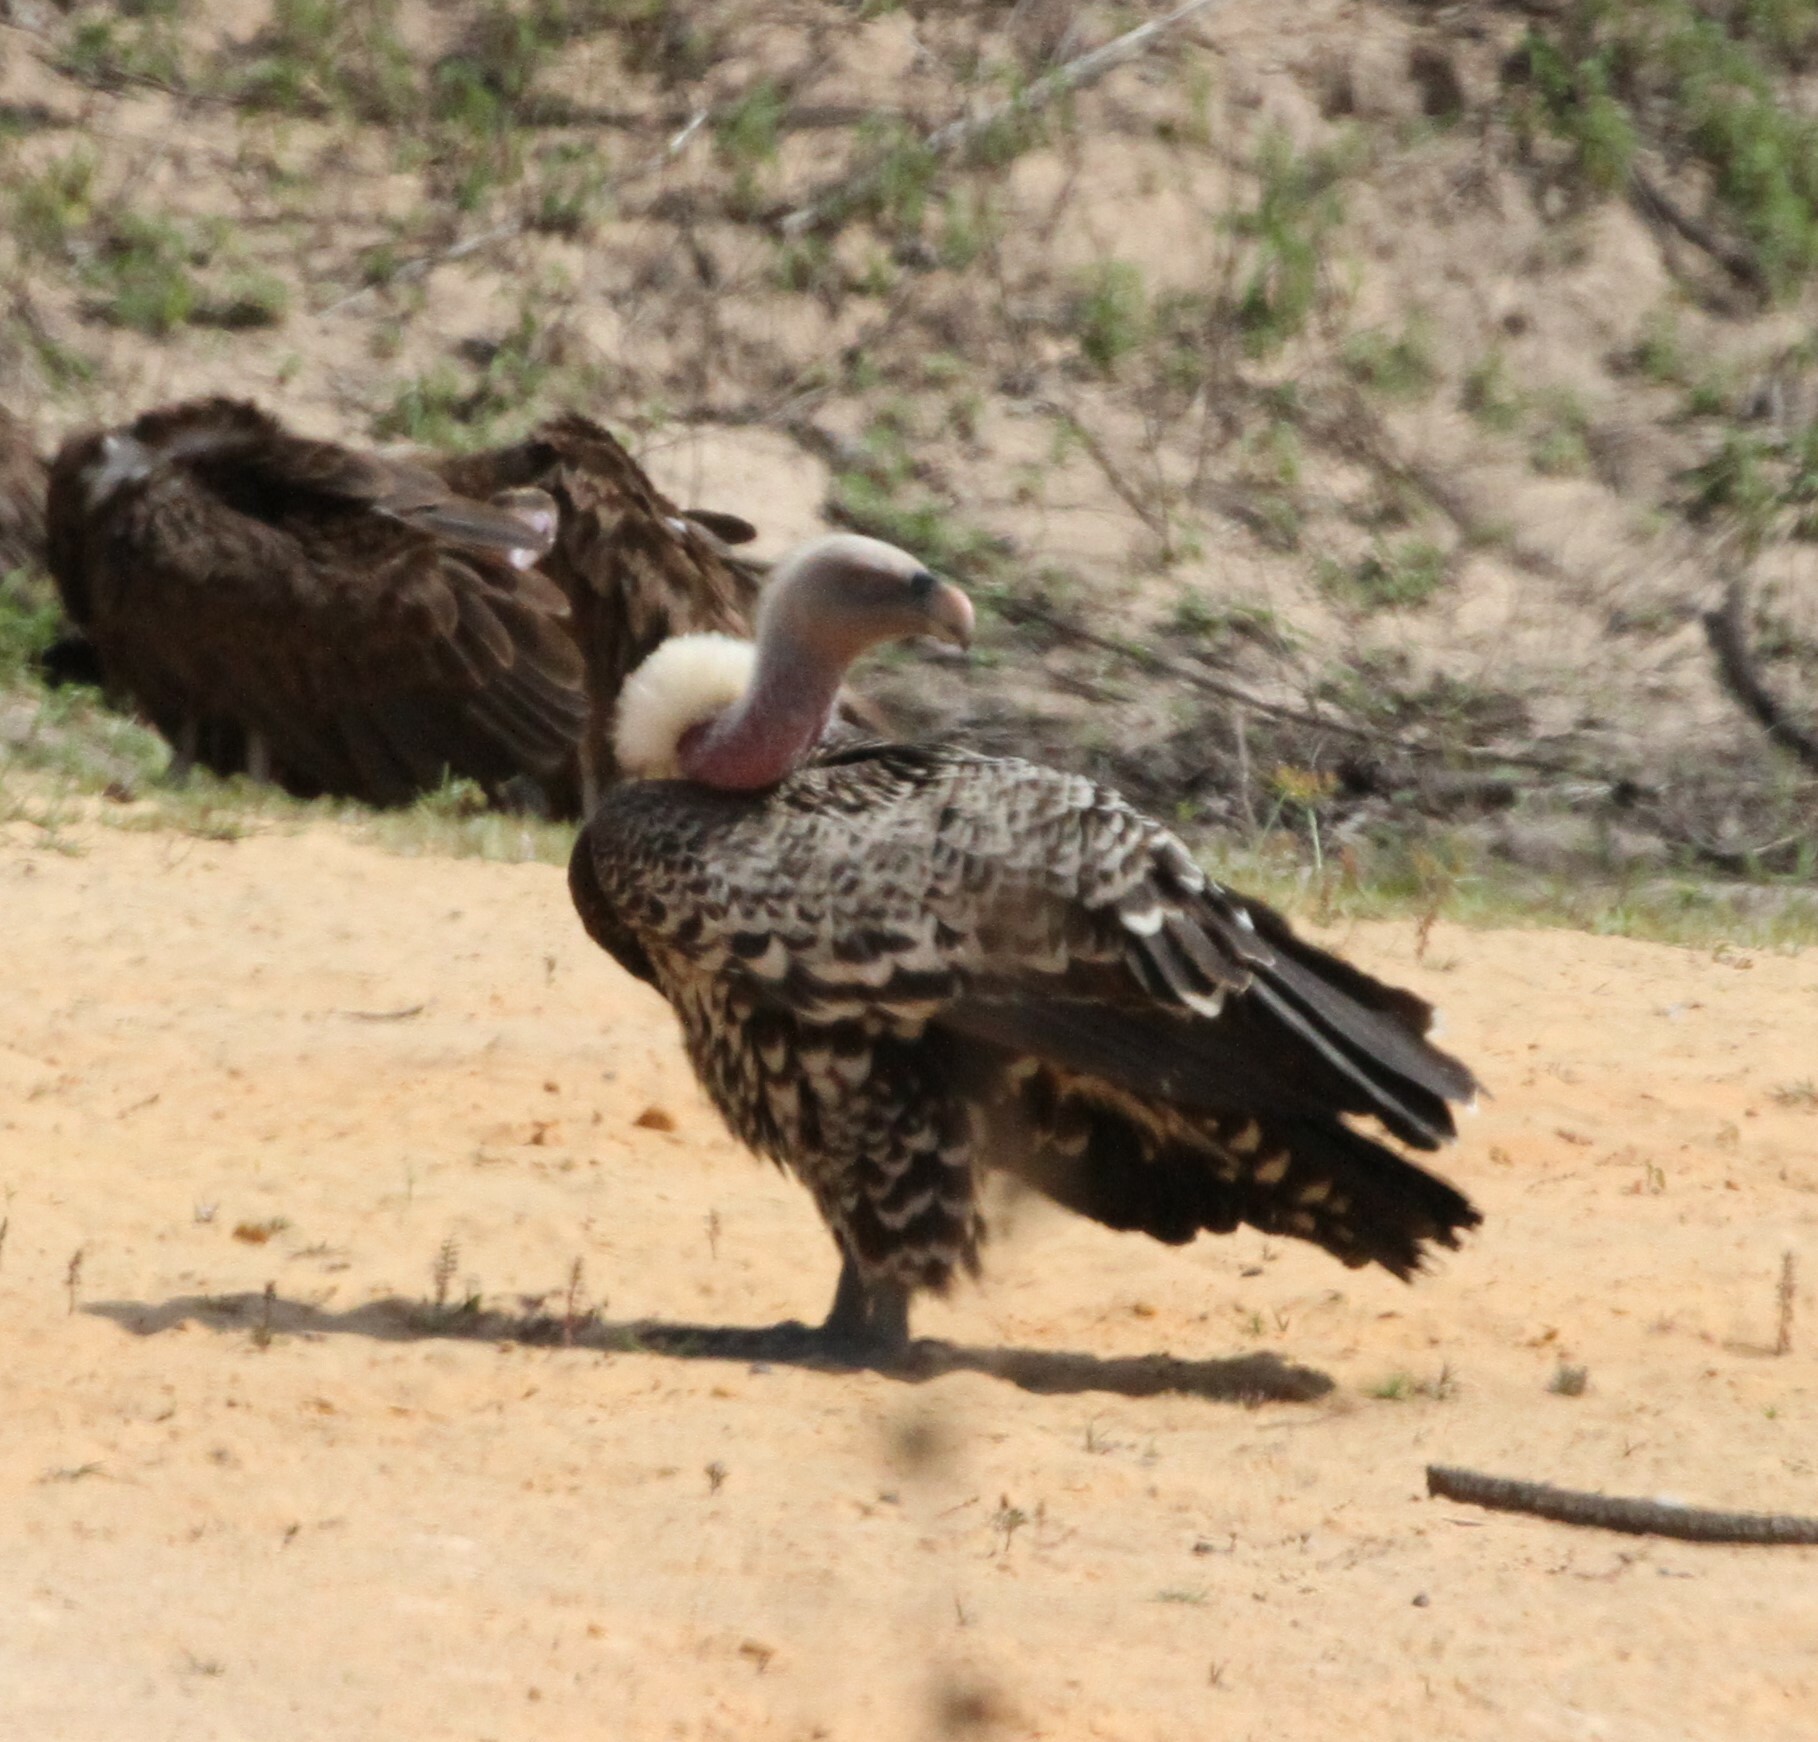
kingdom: Animalia
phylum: Chordata
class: Aves
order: Accipitriformes
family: Accipitridae
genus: Gyps
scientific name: Gyps rueppellii
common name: Rüppell's vulture
